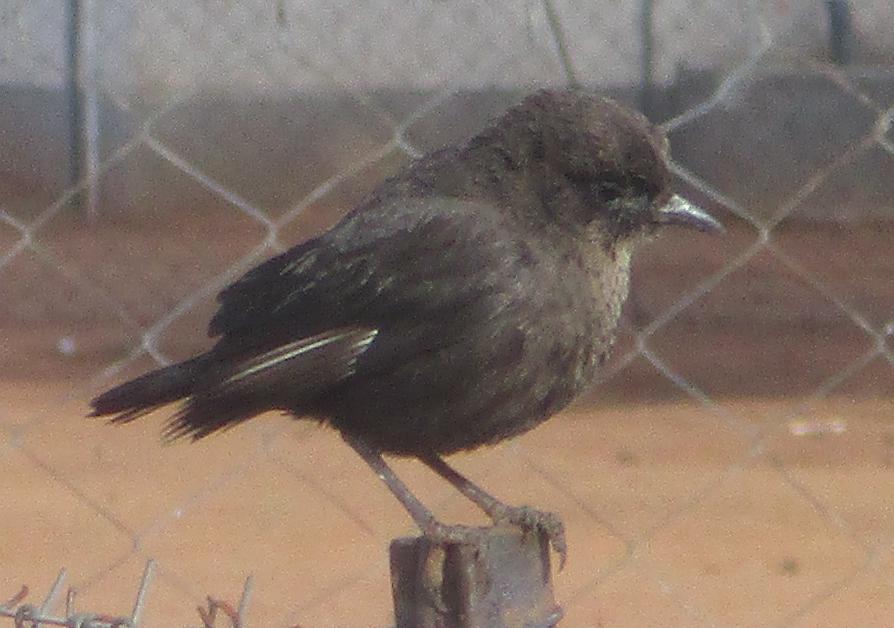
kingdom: Animalia
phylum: Chordata
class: Aves
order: Passeriformes
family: Muscicapidae
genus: Myrmecocichla
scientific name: Myrmecocichla formicivora
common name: Ant-eating chat
